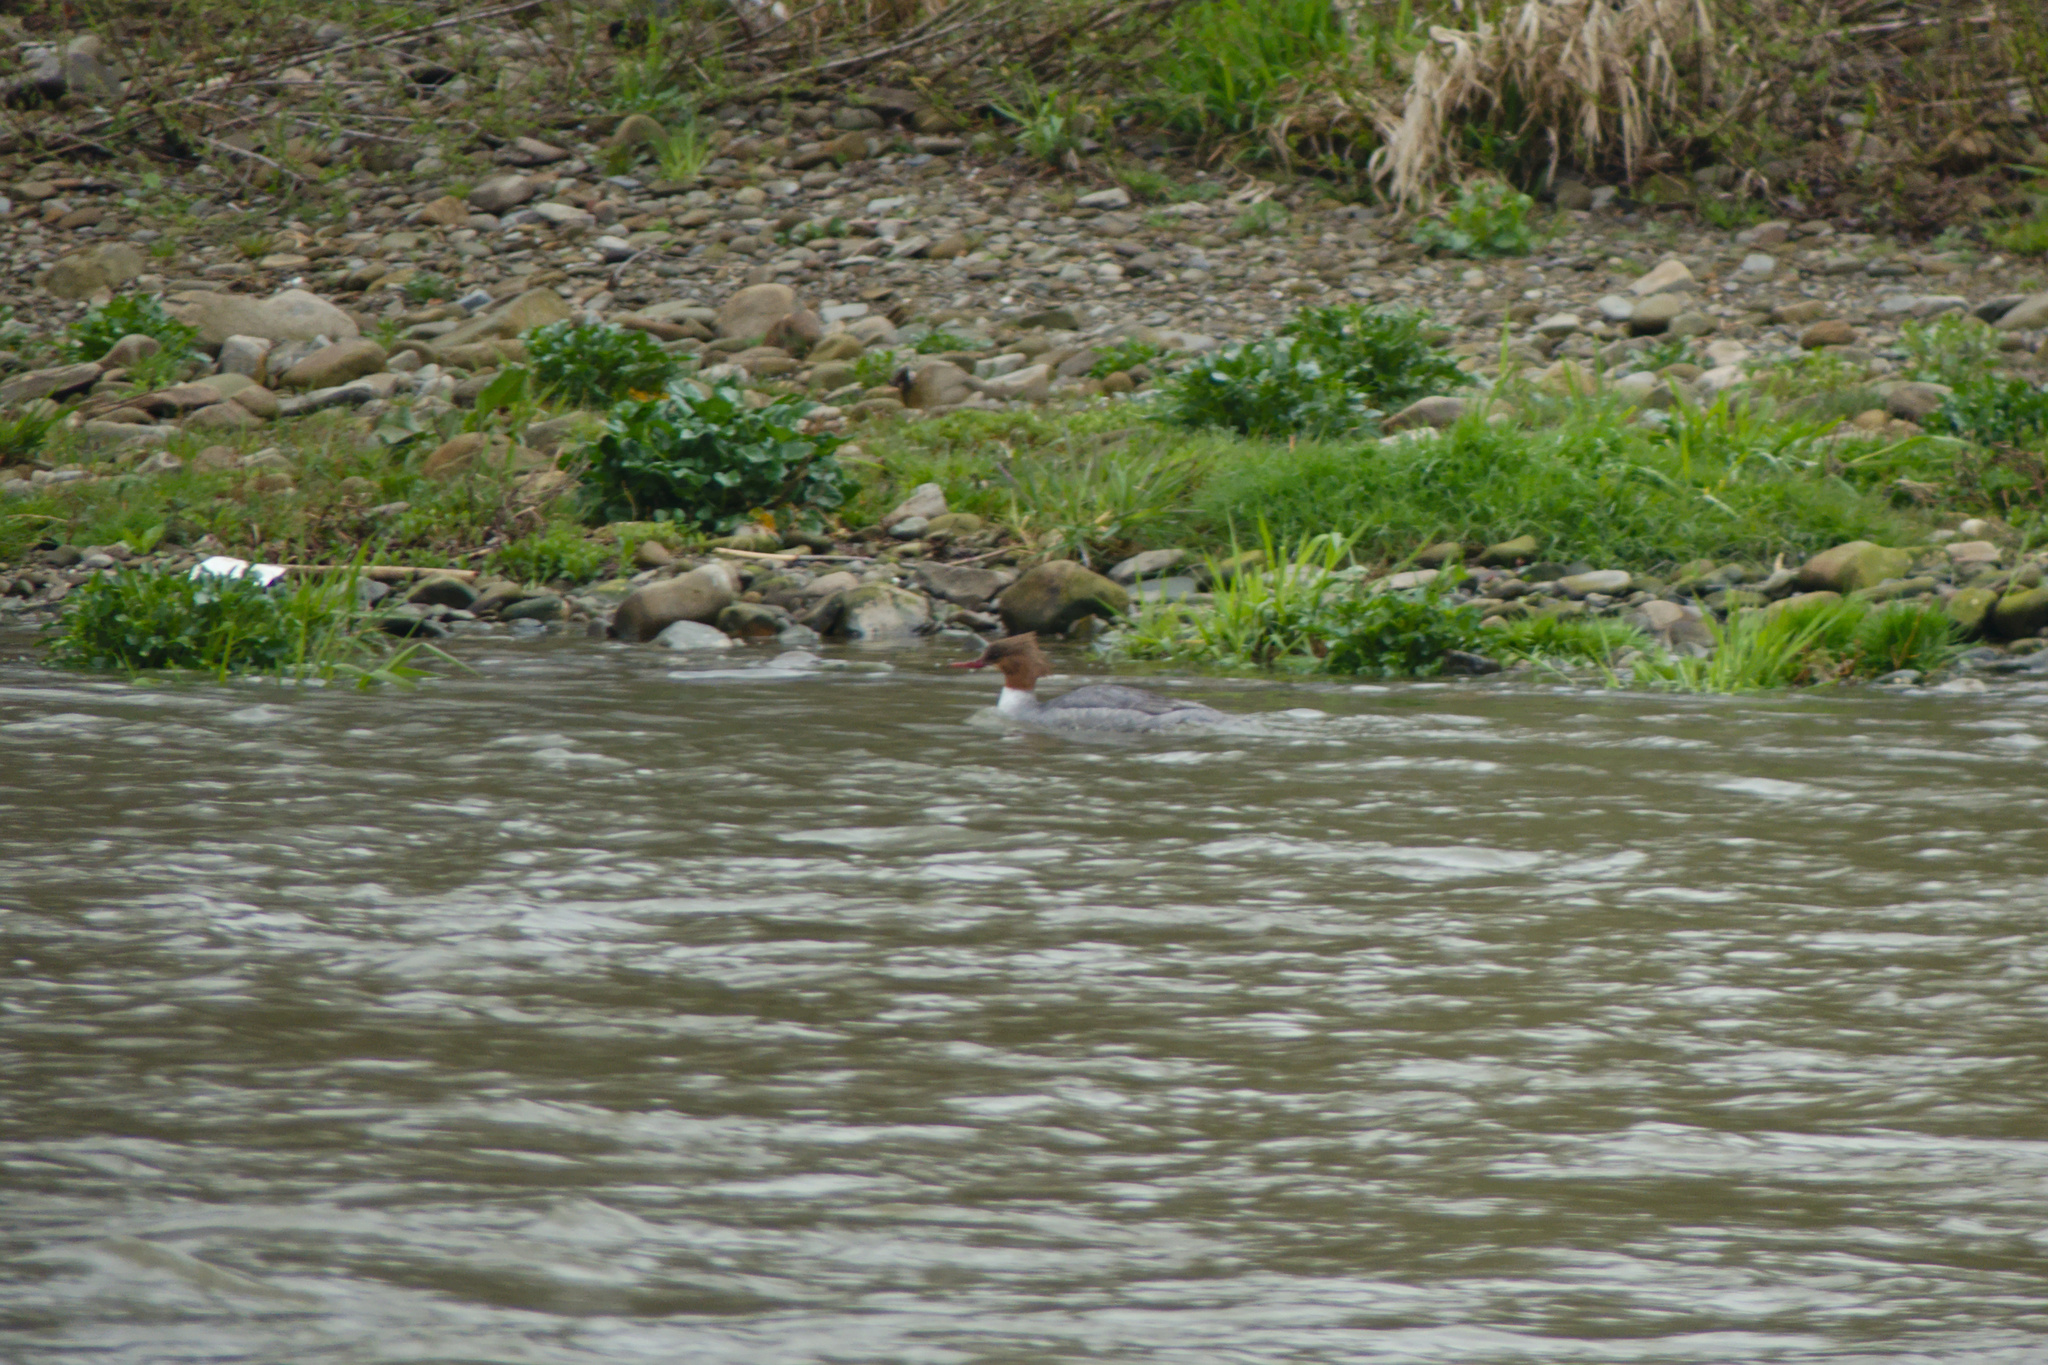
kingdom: Animalia
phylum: Chordata
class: Aves
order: Anseriformes
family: Anatidae
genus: Mergus
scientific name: Mergus merganser
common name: Common merganser
